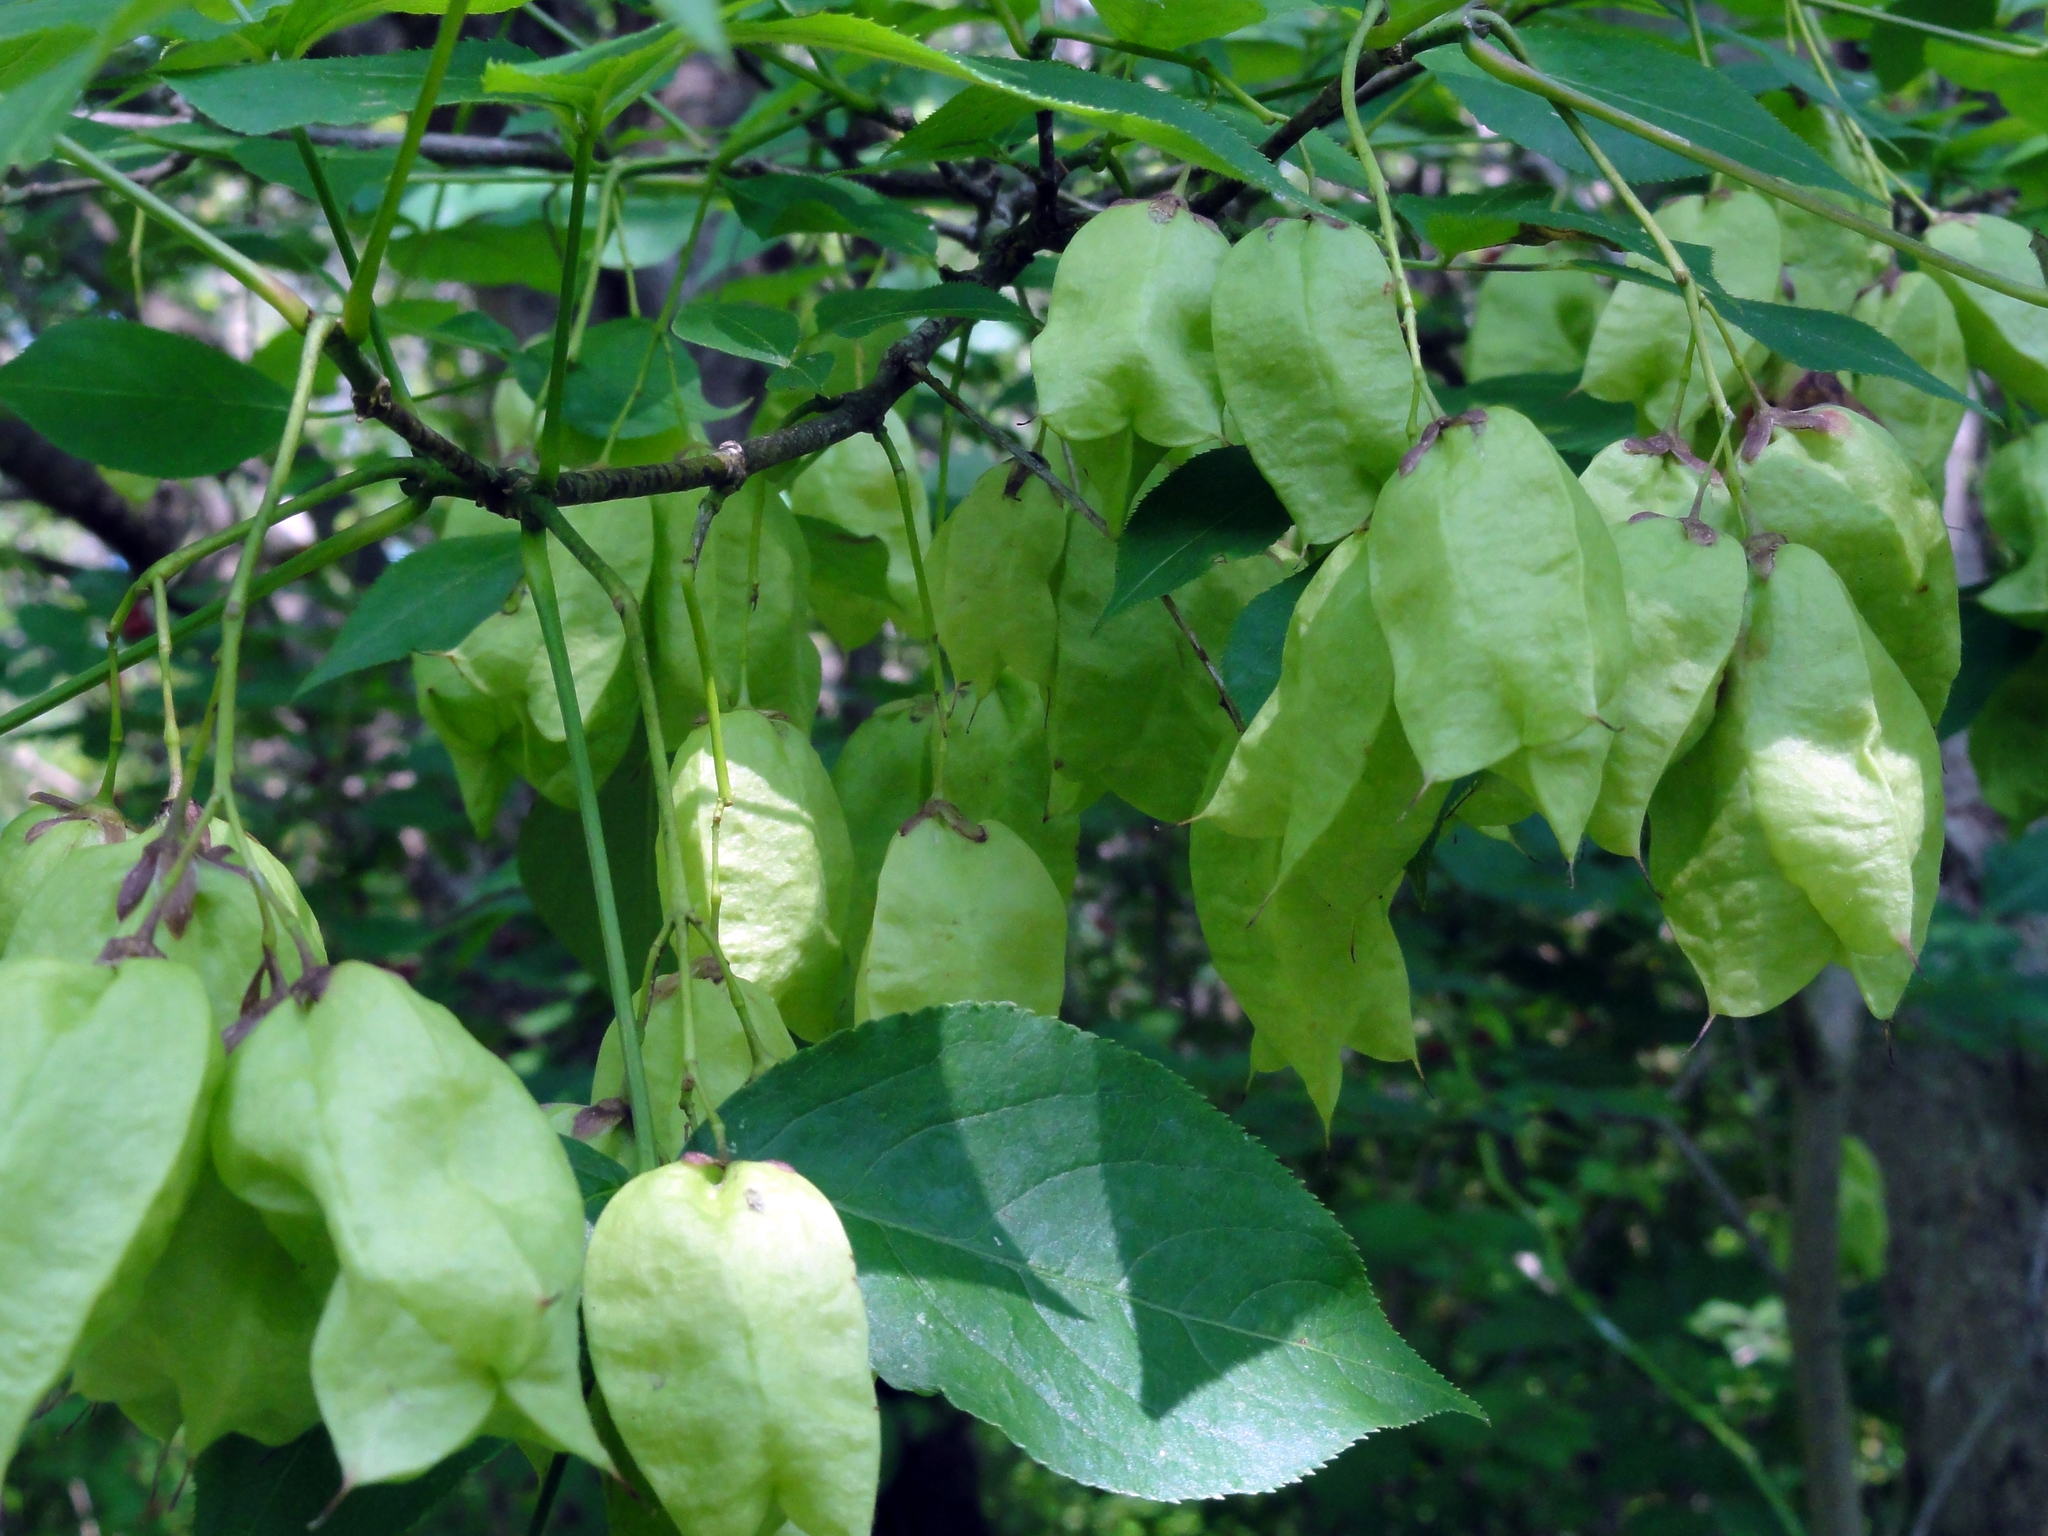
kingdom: Plantae
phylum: Tracheophyta
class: Magnoliopsida
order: Crossosomatales
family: Staphyleaceae
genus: Staphylea
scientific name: Staphylea trifolia
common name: American bladdernut
